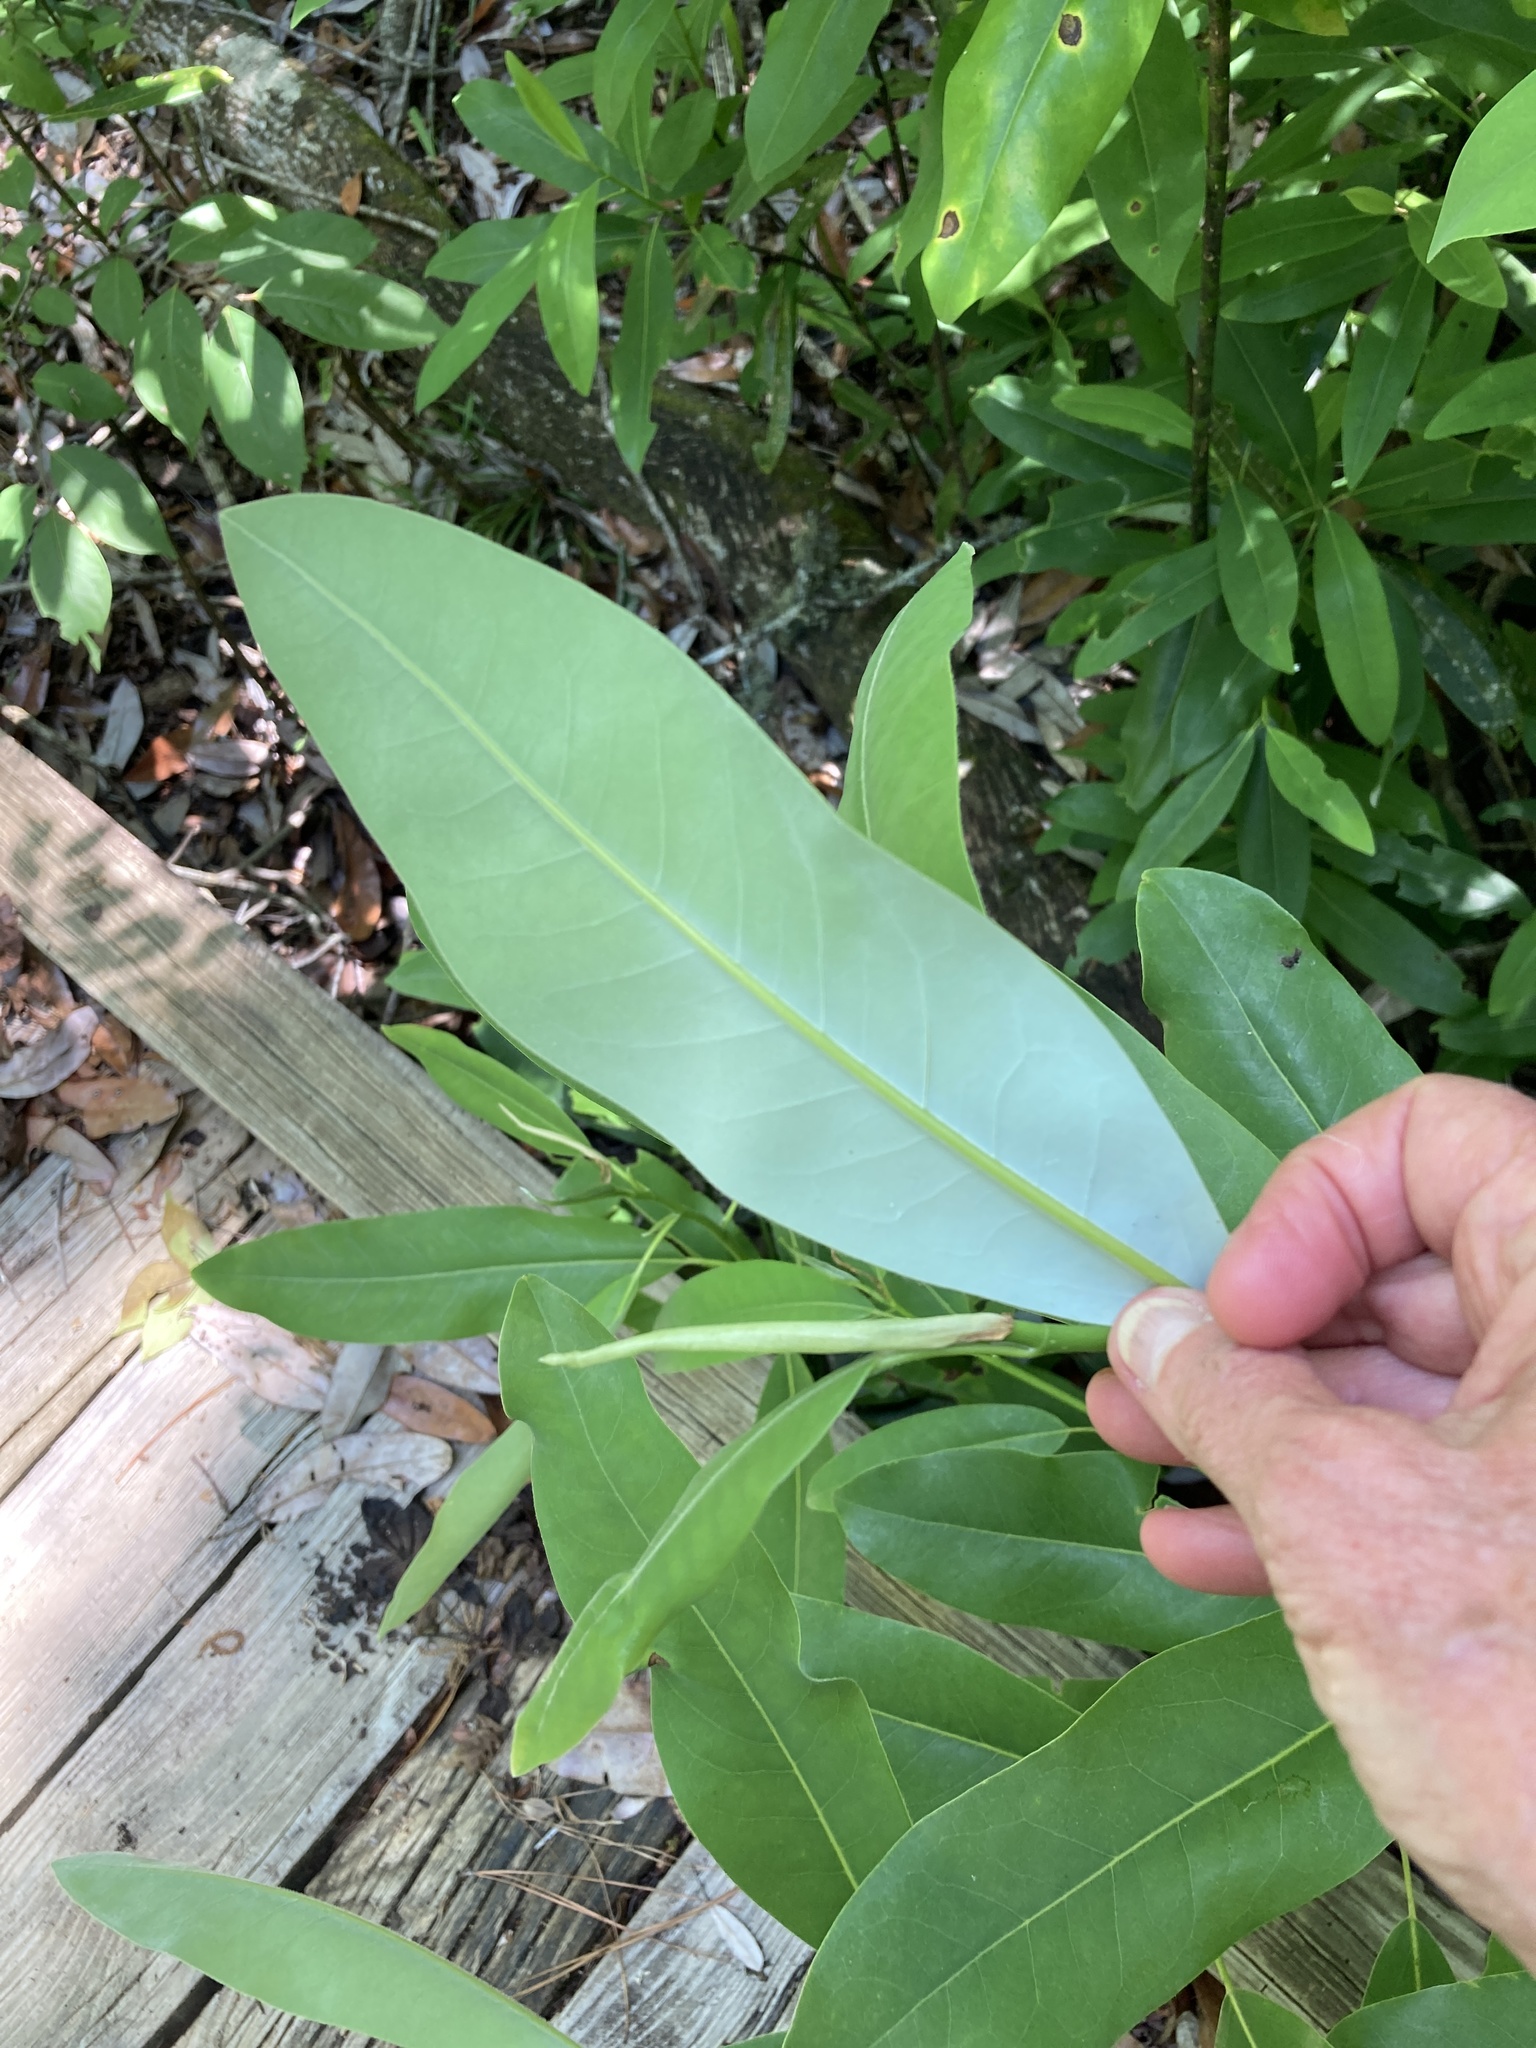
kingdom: Plantae
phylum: Tracheophyta
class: Magnoliopsida
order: Magnoliales
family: Magnoliaceae
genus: Magnolia
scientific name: Magnolia virginiana
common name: Swamp bay
